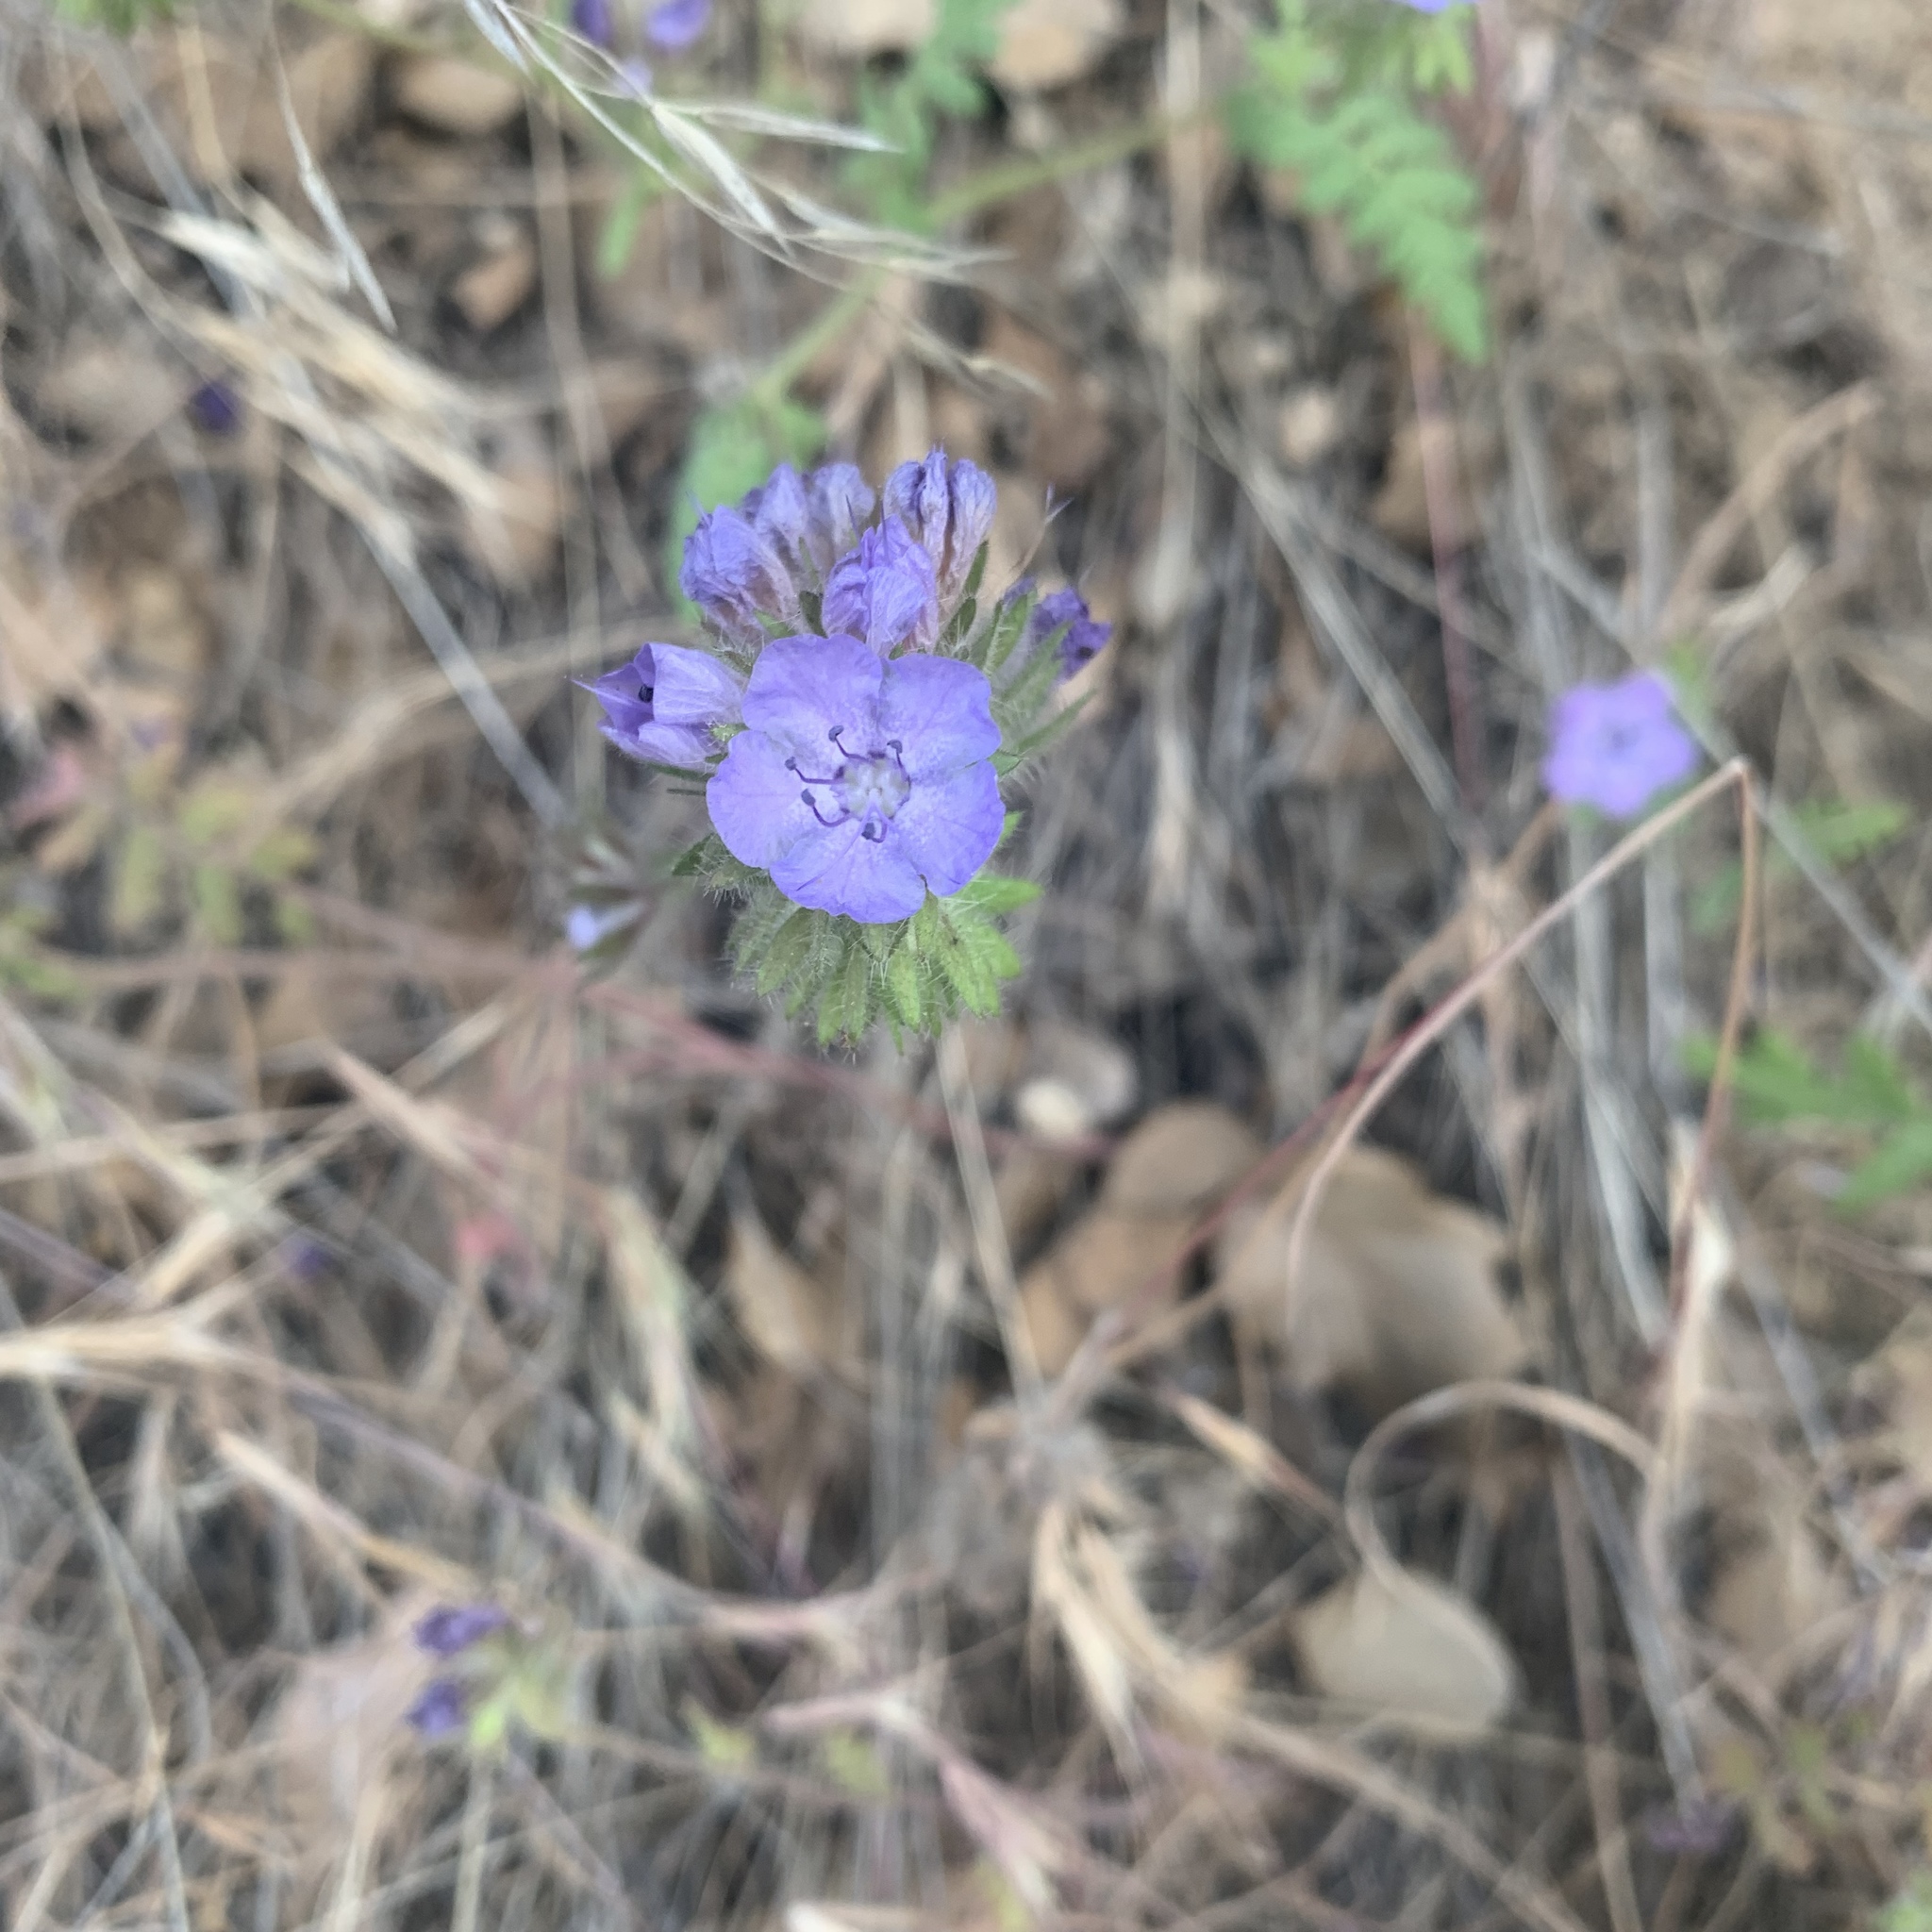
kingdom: Plantae
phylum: Tracheophyta
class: Magnoliopsida
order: Boraginales
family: Hydrophyllaceae
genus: Phacelia
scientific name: Phacelia distans
